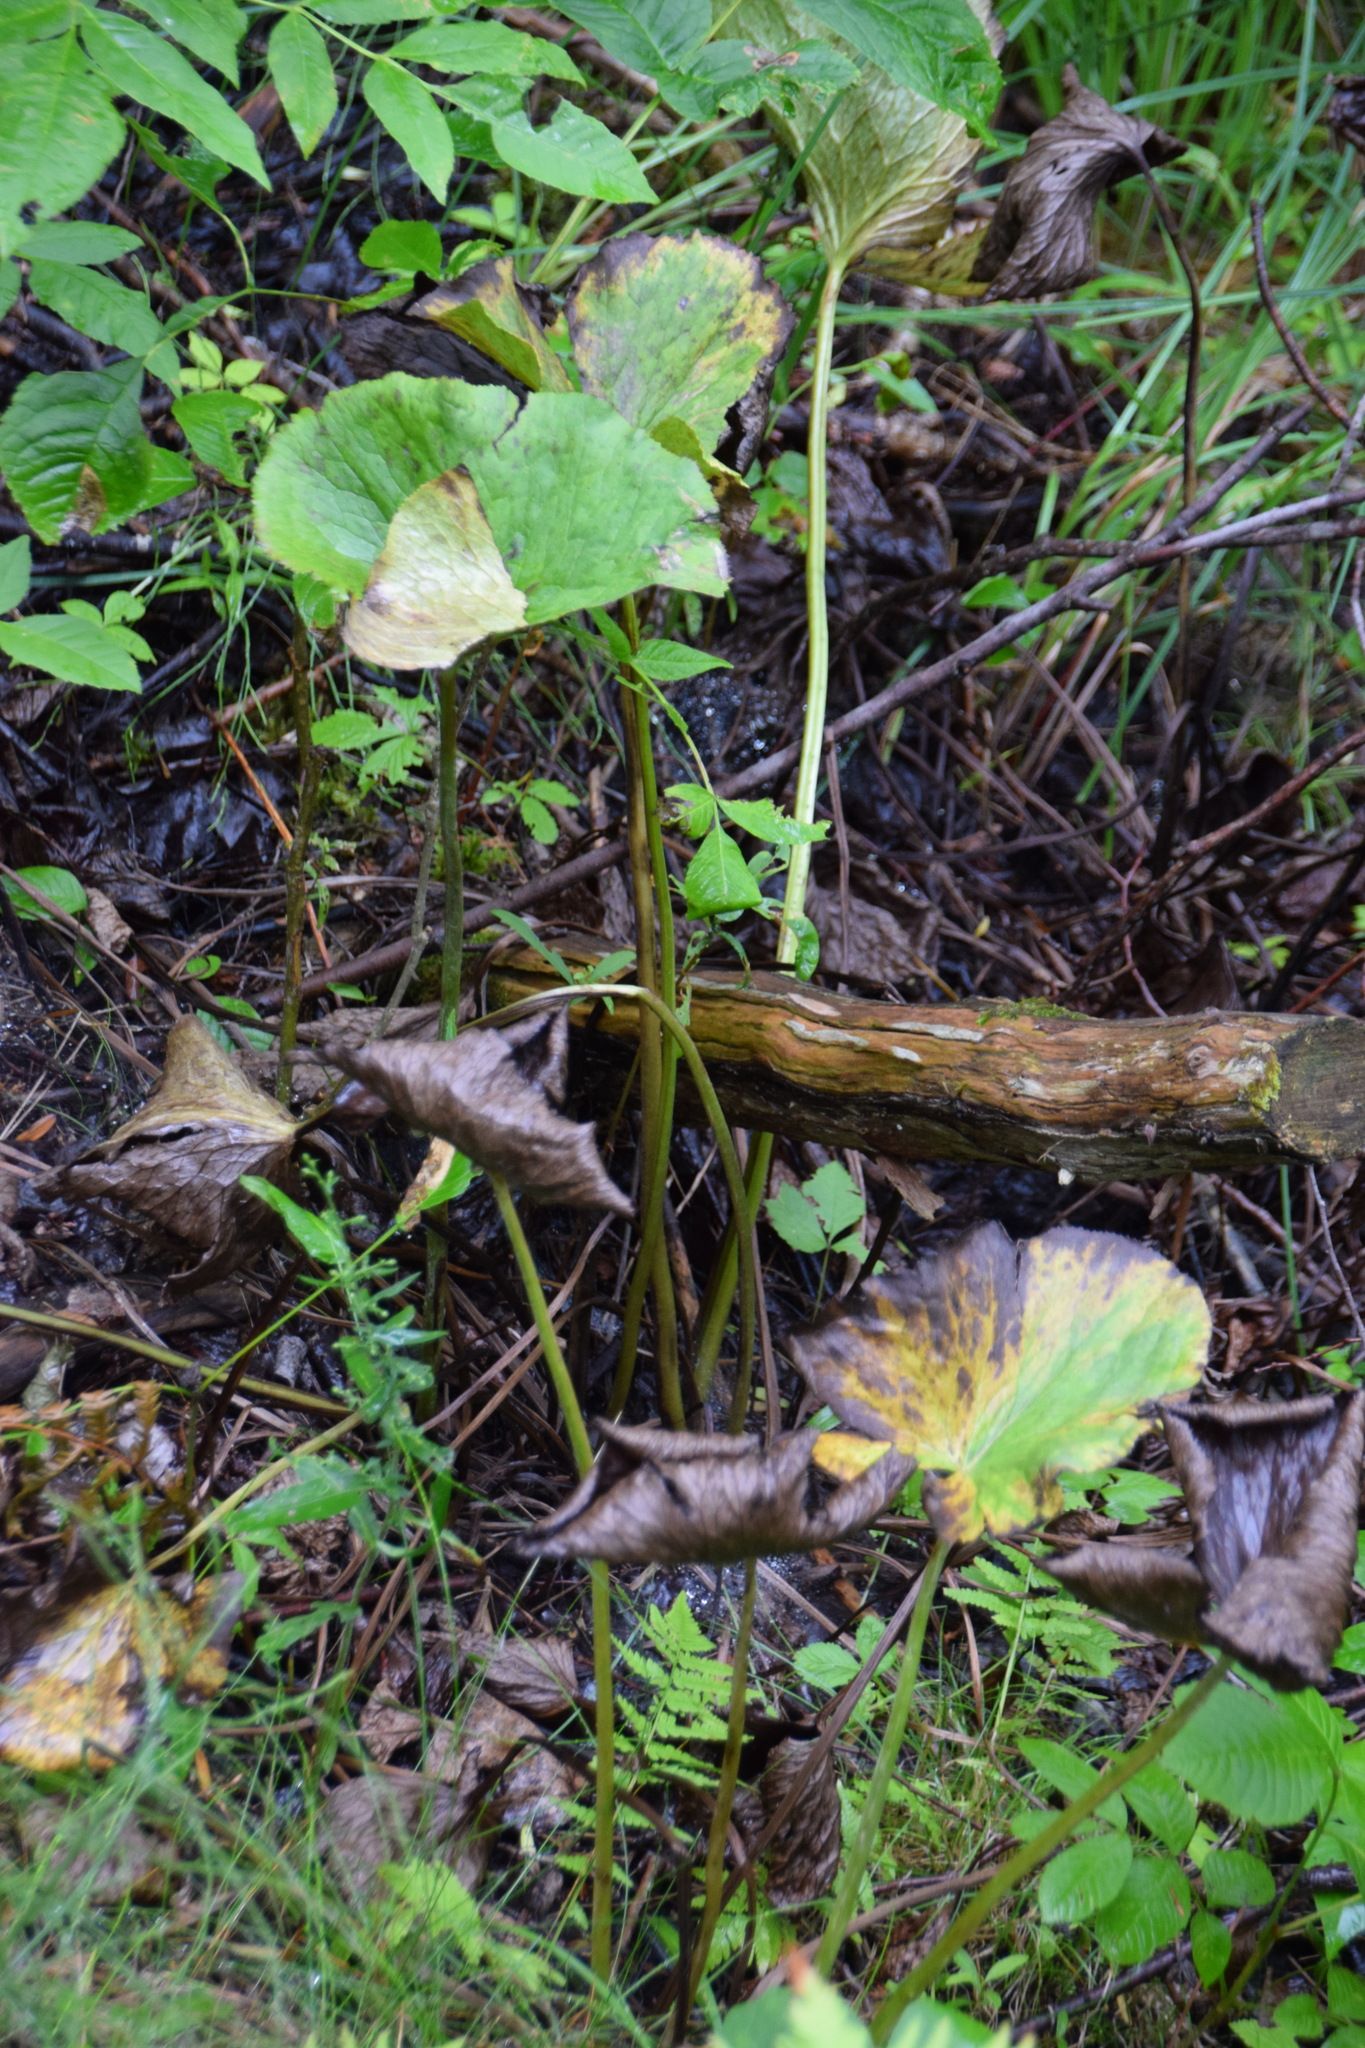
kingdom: Plantae
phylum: Tracheophyta
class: Magnoliopsida
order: Ranunculales
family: Ranunculaceae
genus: Caltha
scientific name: Caltha palustris
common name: Marsh marigold
